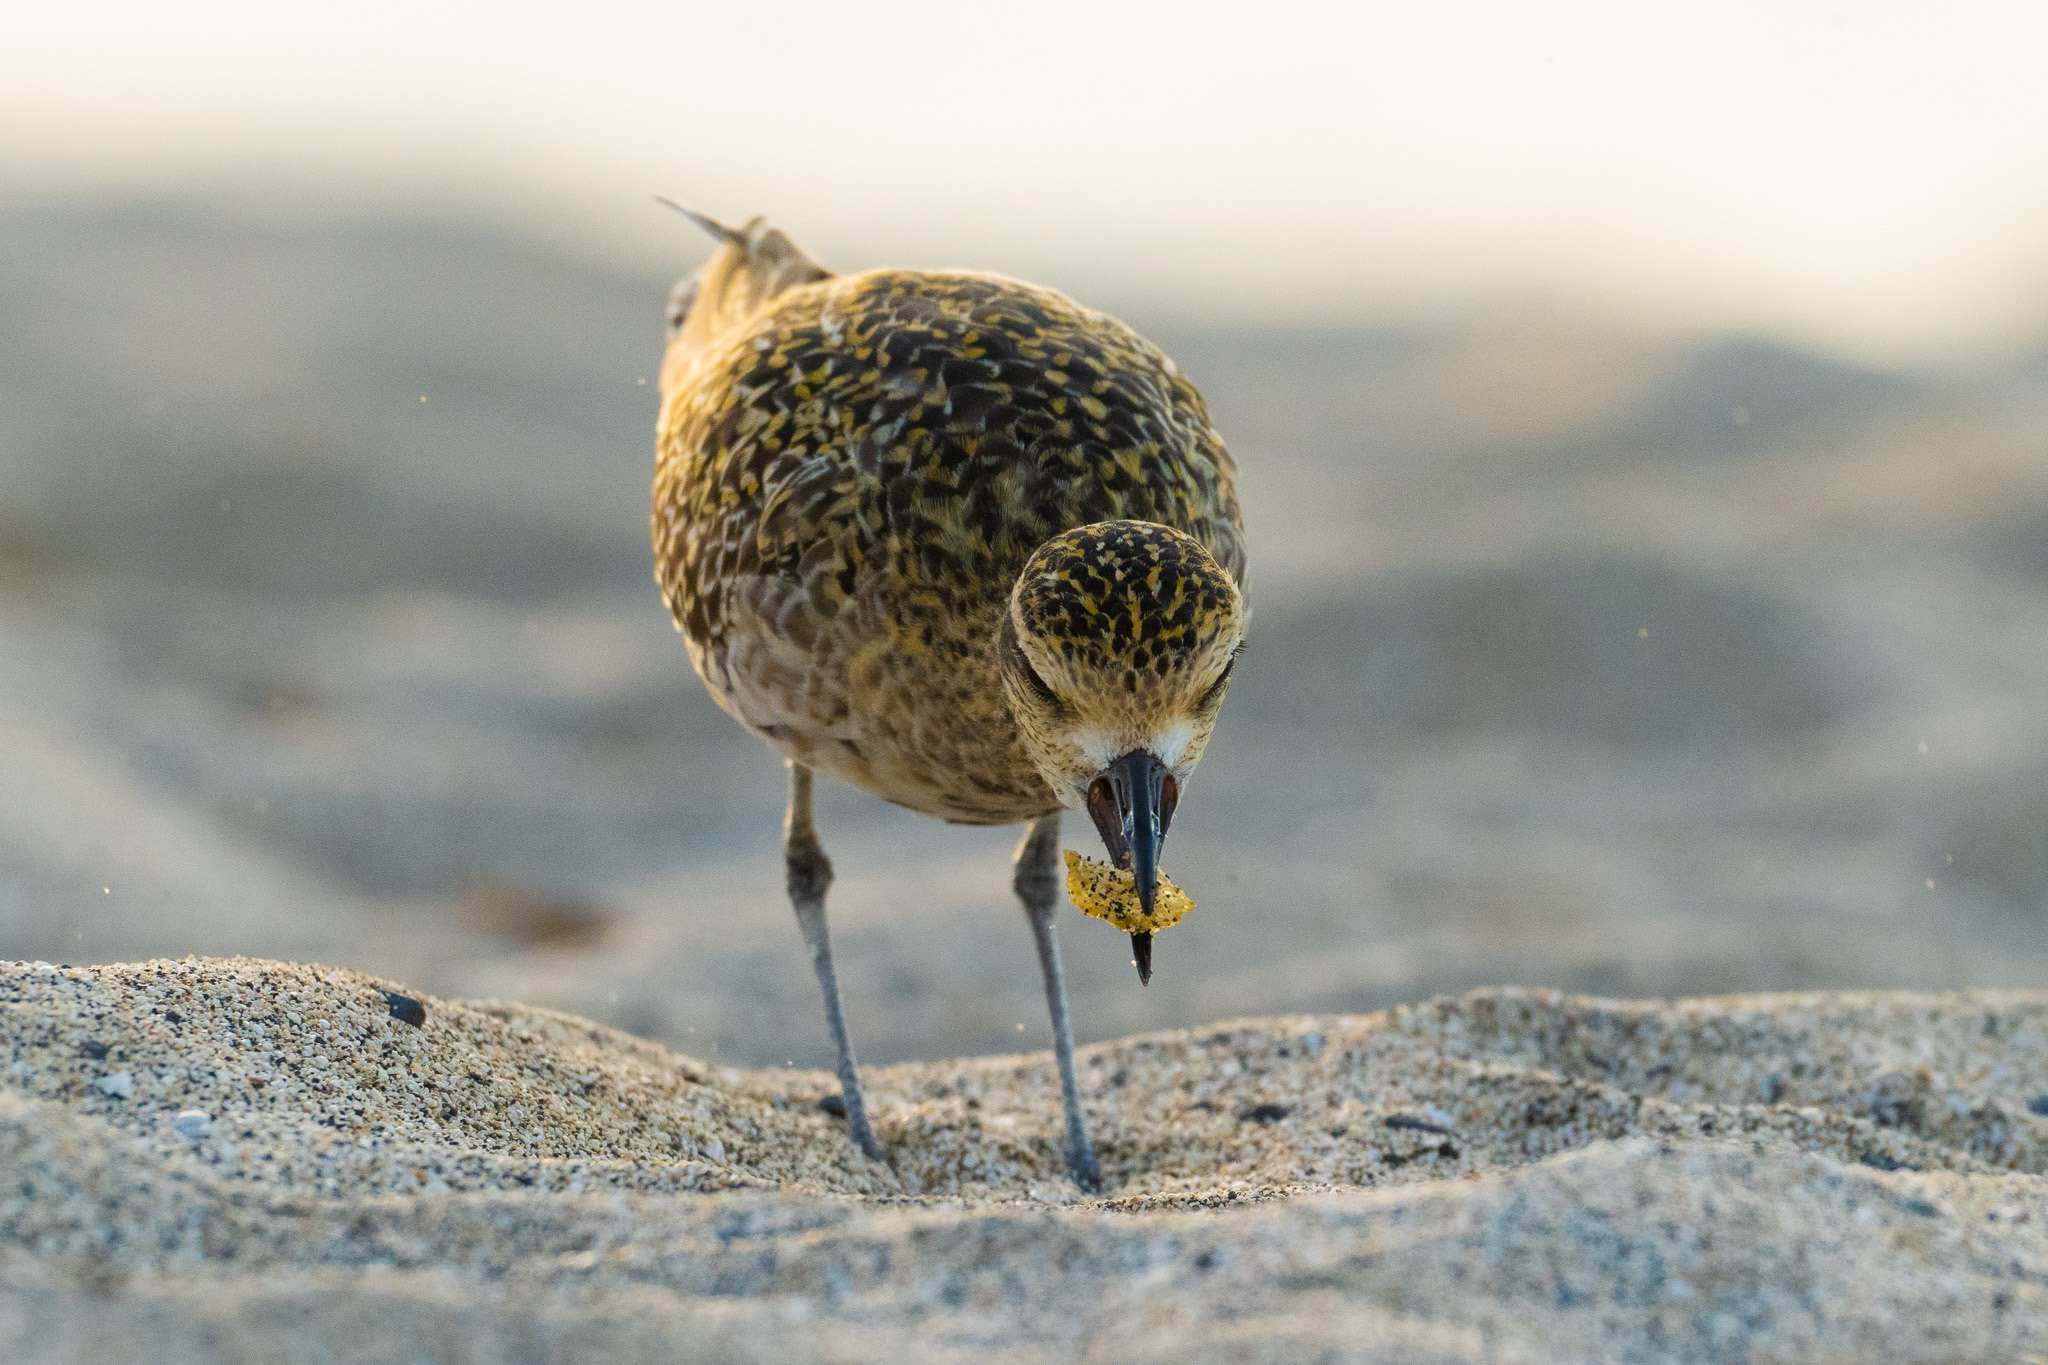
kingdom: Animalia
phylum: Chordata
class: Aves
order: Charadriiformes
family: Charadriidae
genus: Pluvialis
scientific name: Pluvialis fulva
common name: Pacific golden plover
